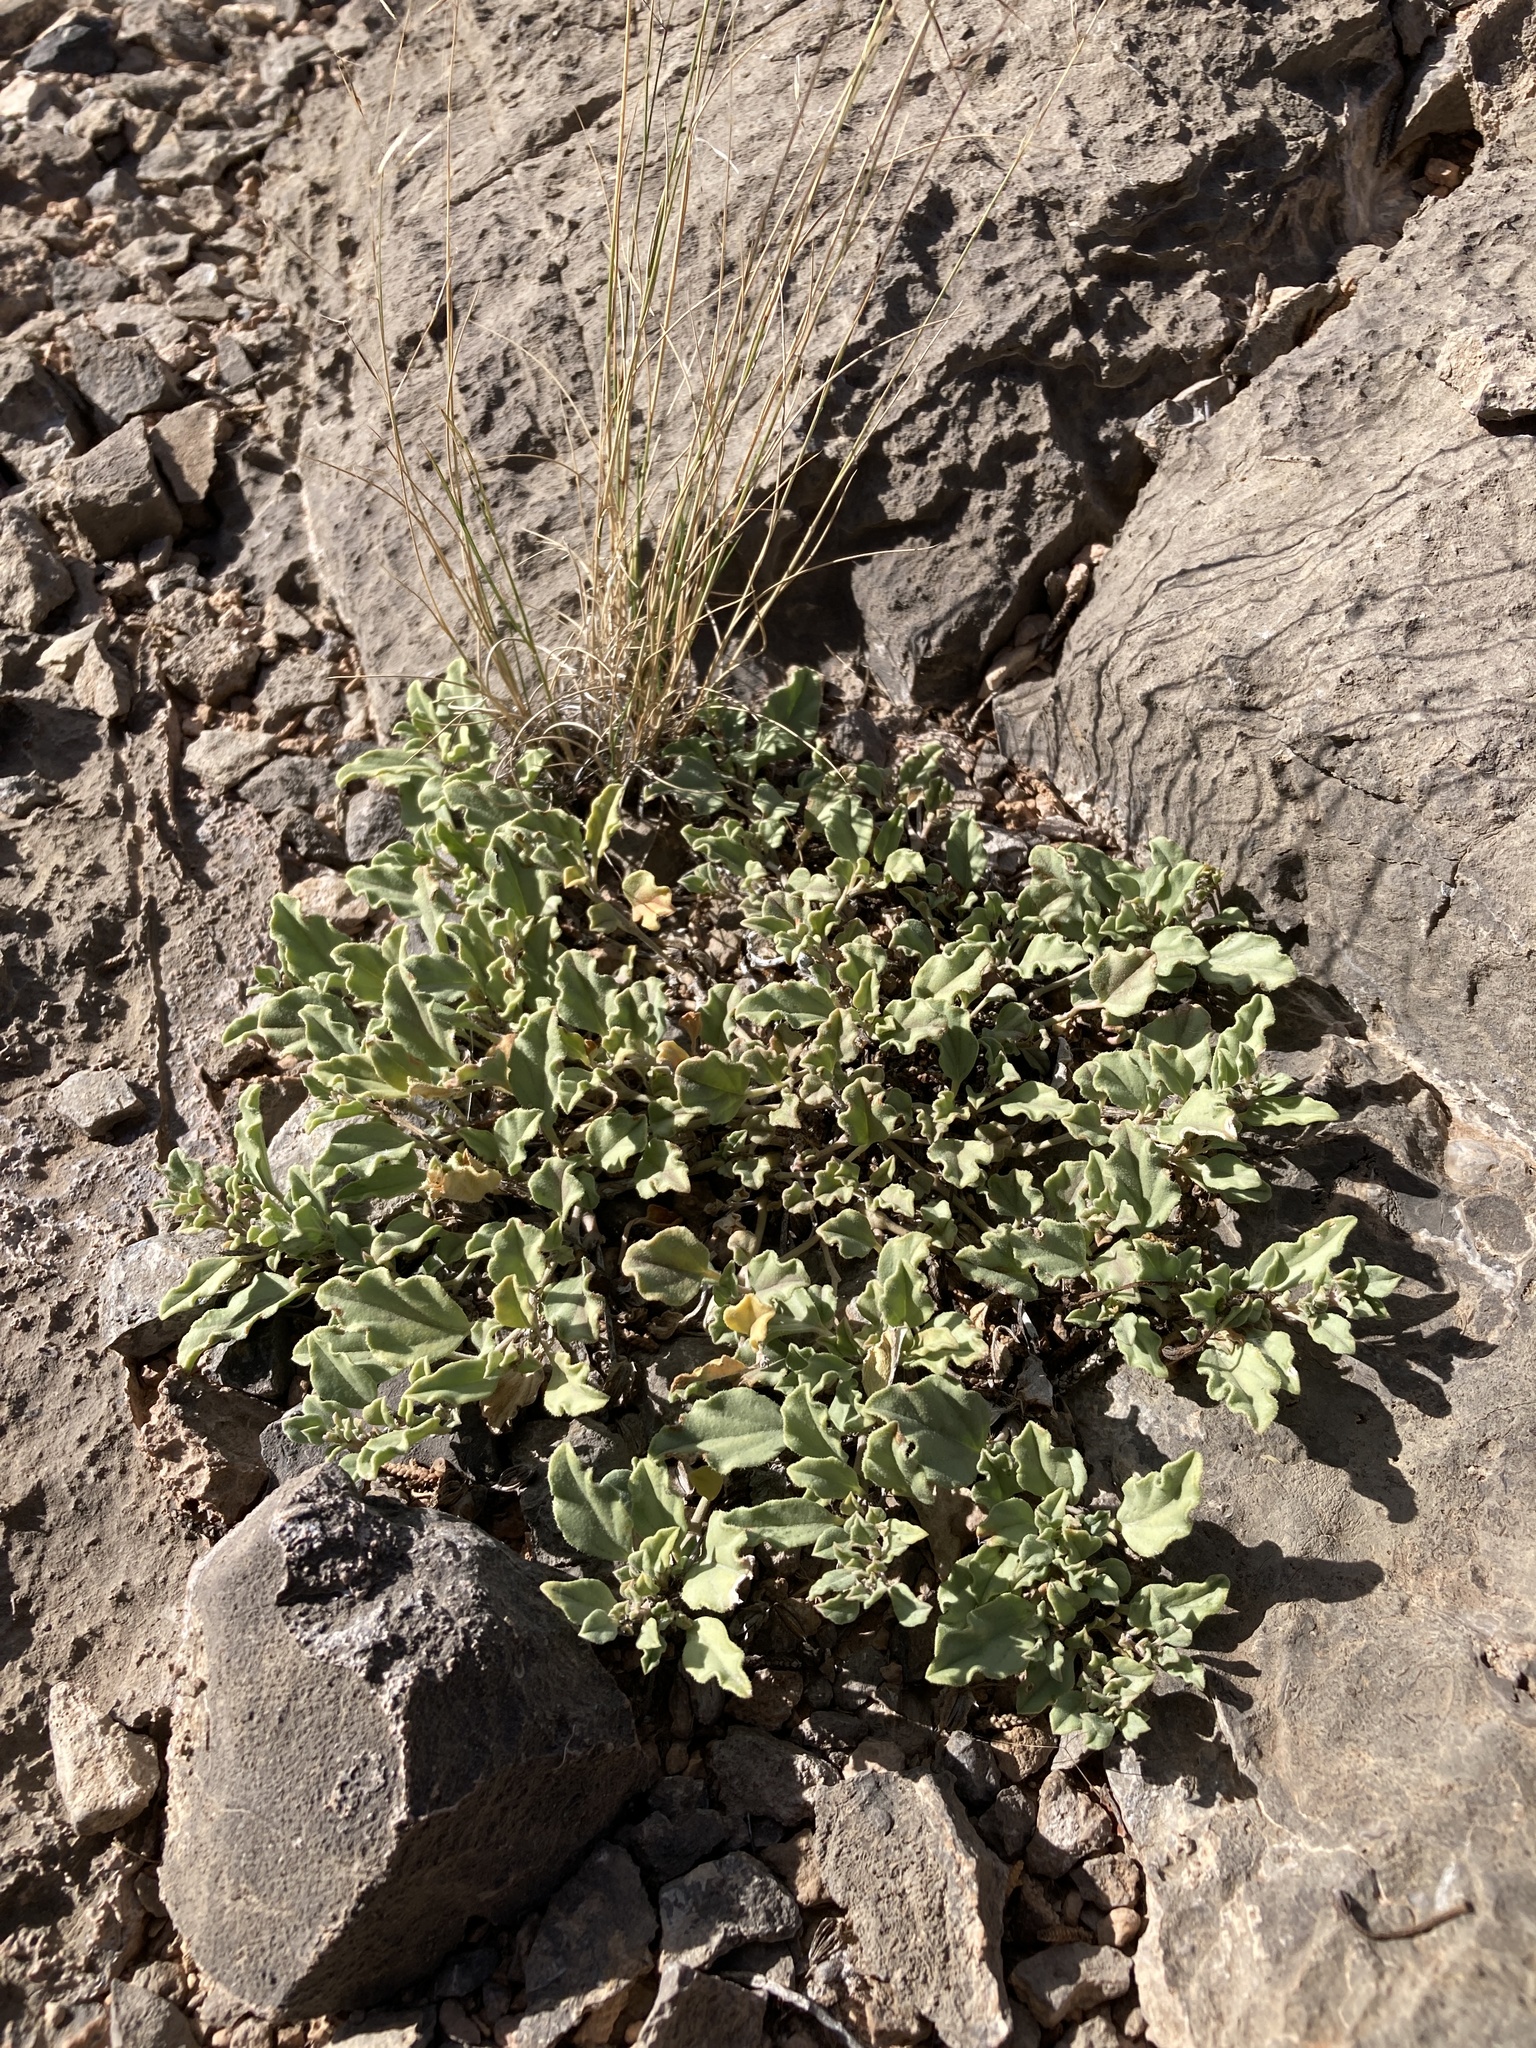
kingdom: Plantae
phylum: Tracheophyta
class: Magnoliopsida
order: Caryophyllales
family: Nyctaginaceae
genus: Acleisanthes
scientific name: Acleisanthes diffusa
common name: Spreading moonpod
